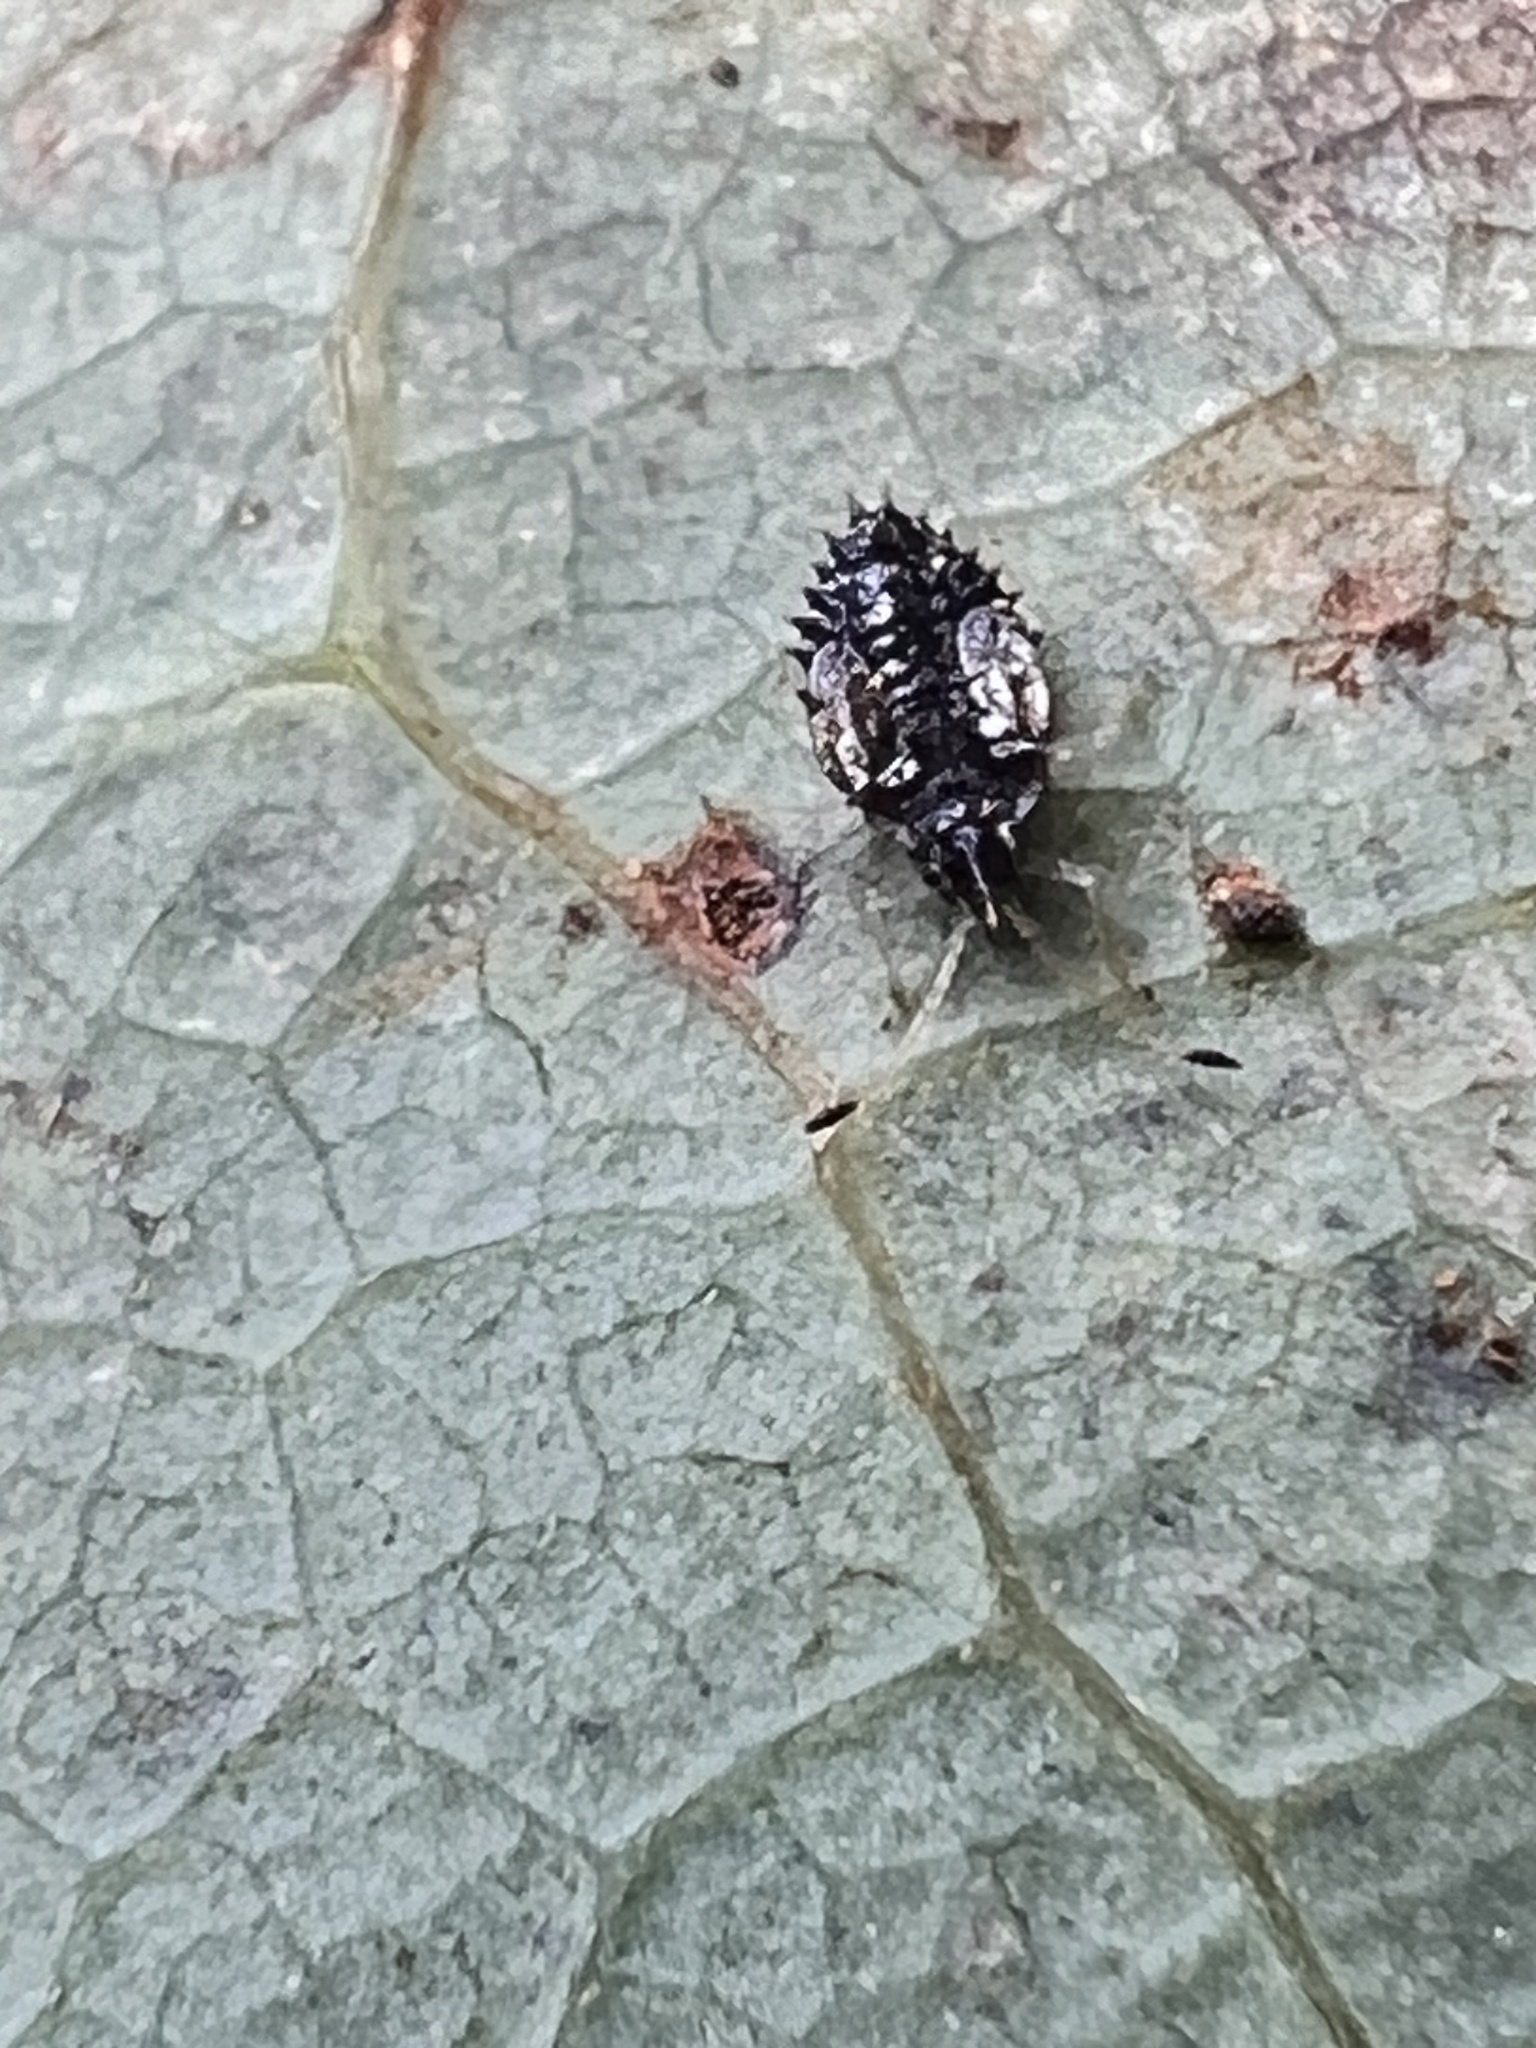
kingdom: Animalia
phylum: Arthropoda
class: Insecta
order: Hemiptera
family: Tingidae
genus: Pseudacysta
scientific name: Pseudacysta perseae
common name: Avocado lace bug
